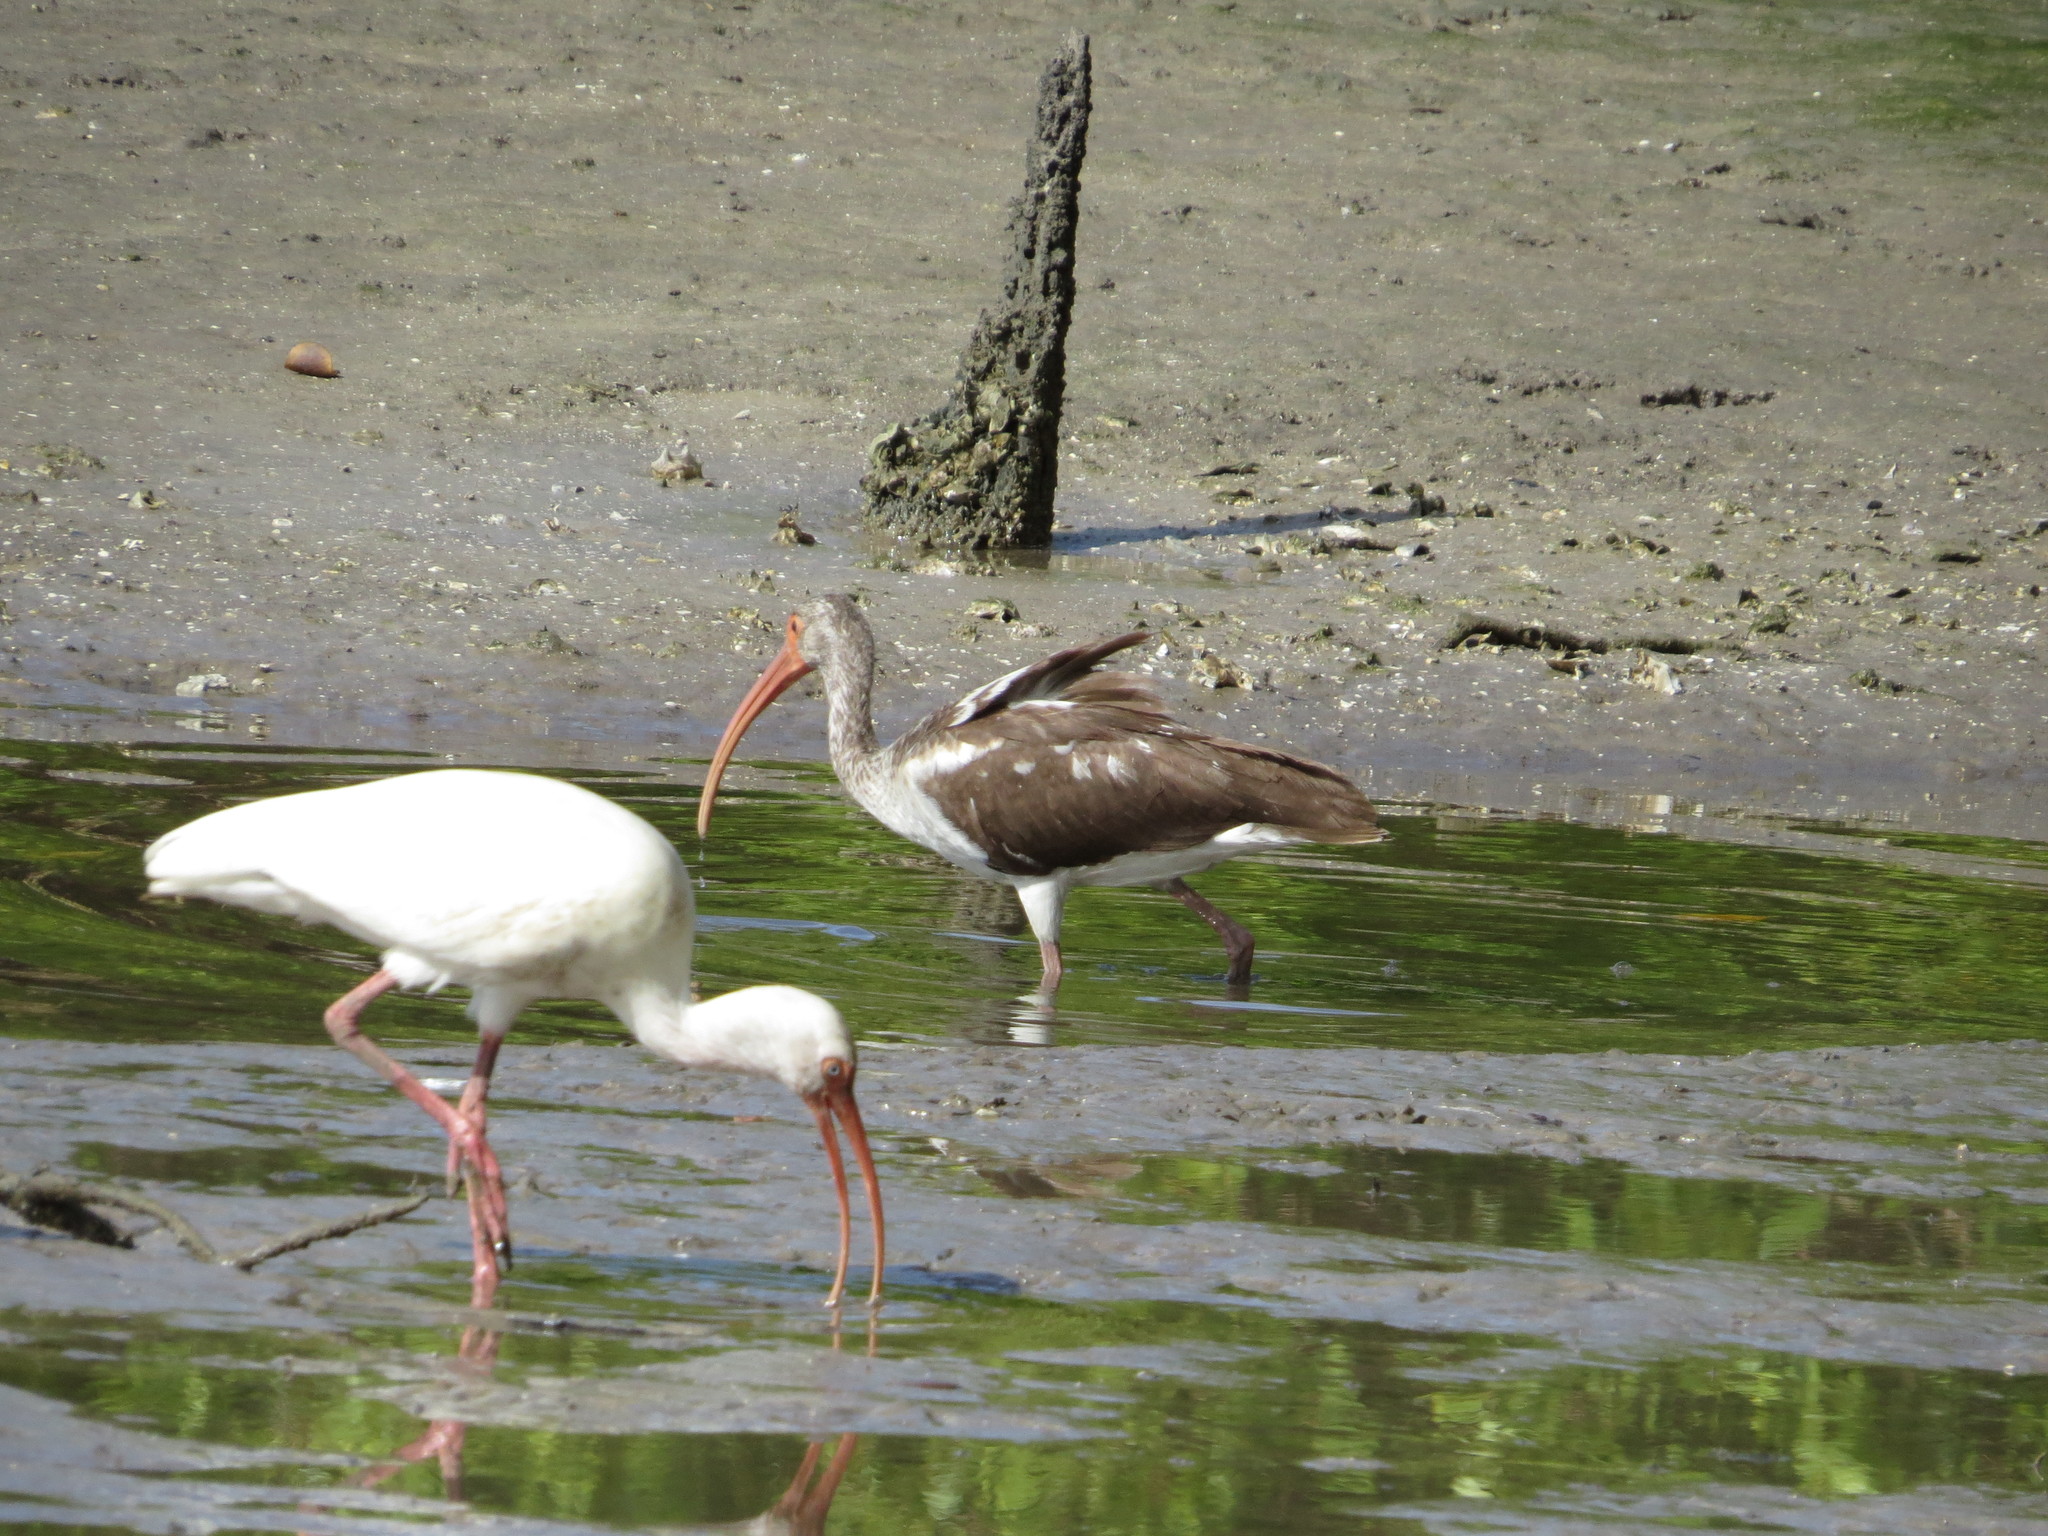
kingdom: Animalia
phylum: Chordata
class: Aves
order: Pelecaniformes
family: Threskiornithidae
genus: Eudocimus
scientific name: Eudocimus albus
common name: White ibis
